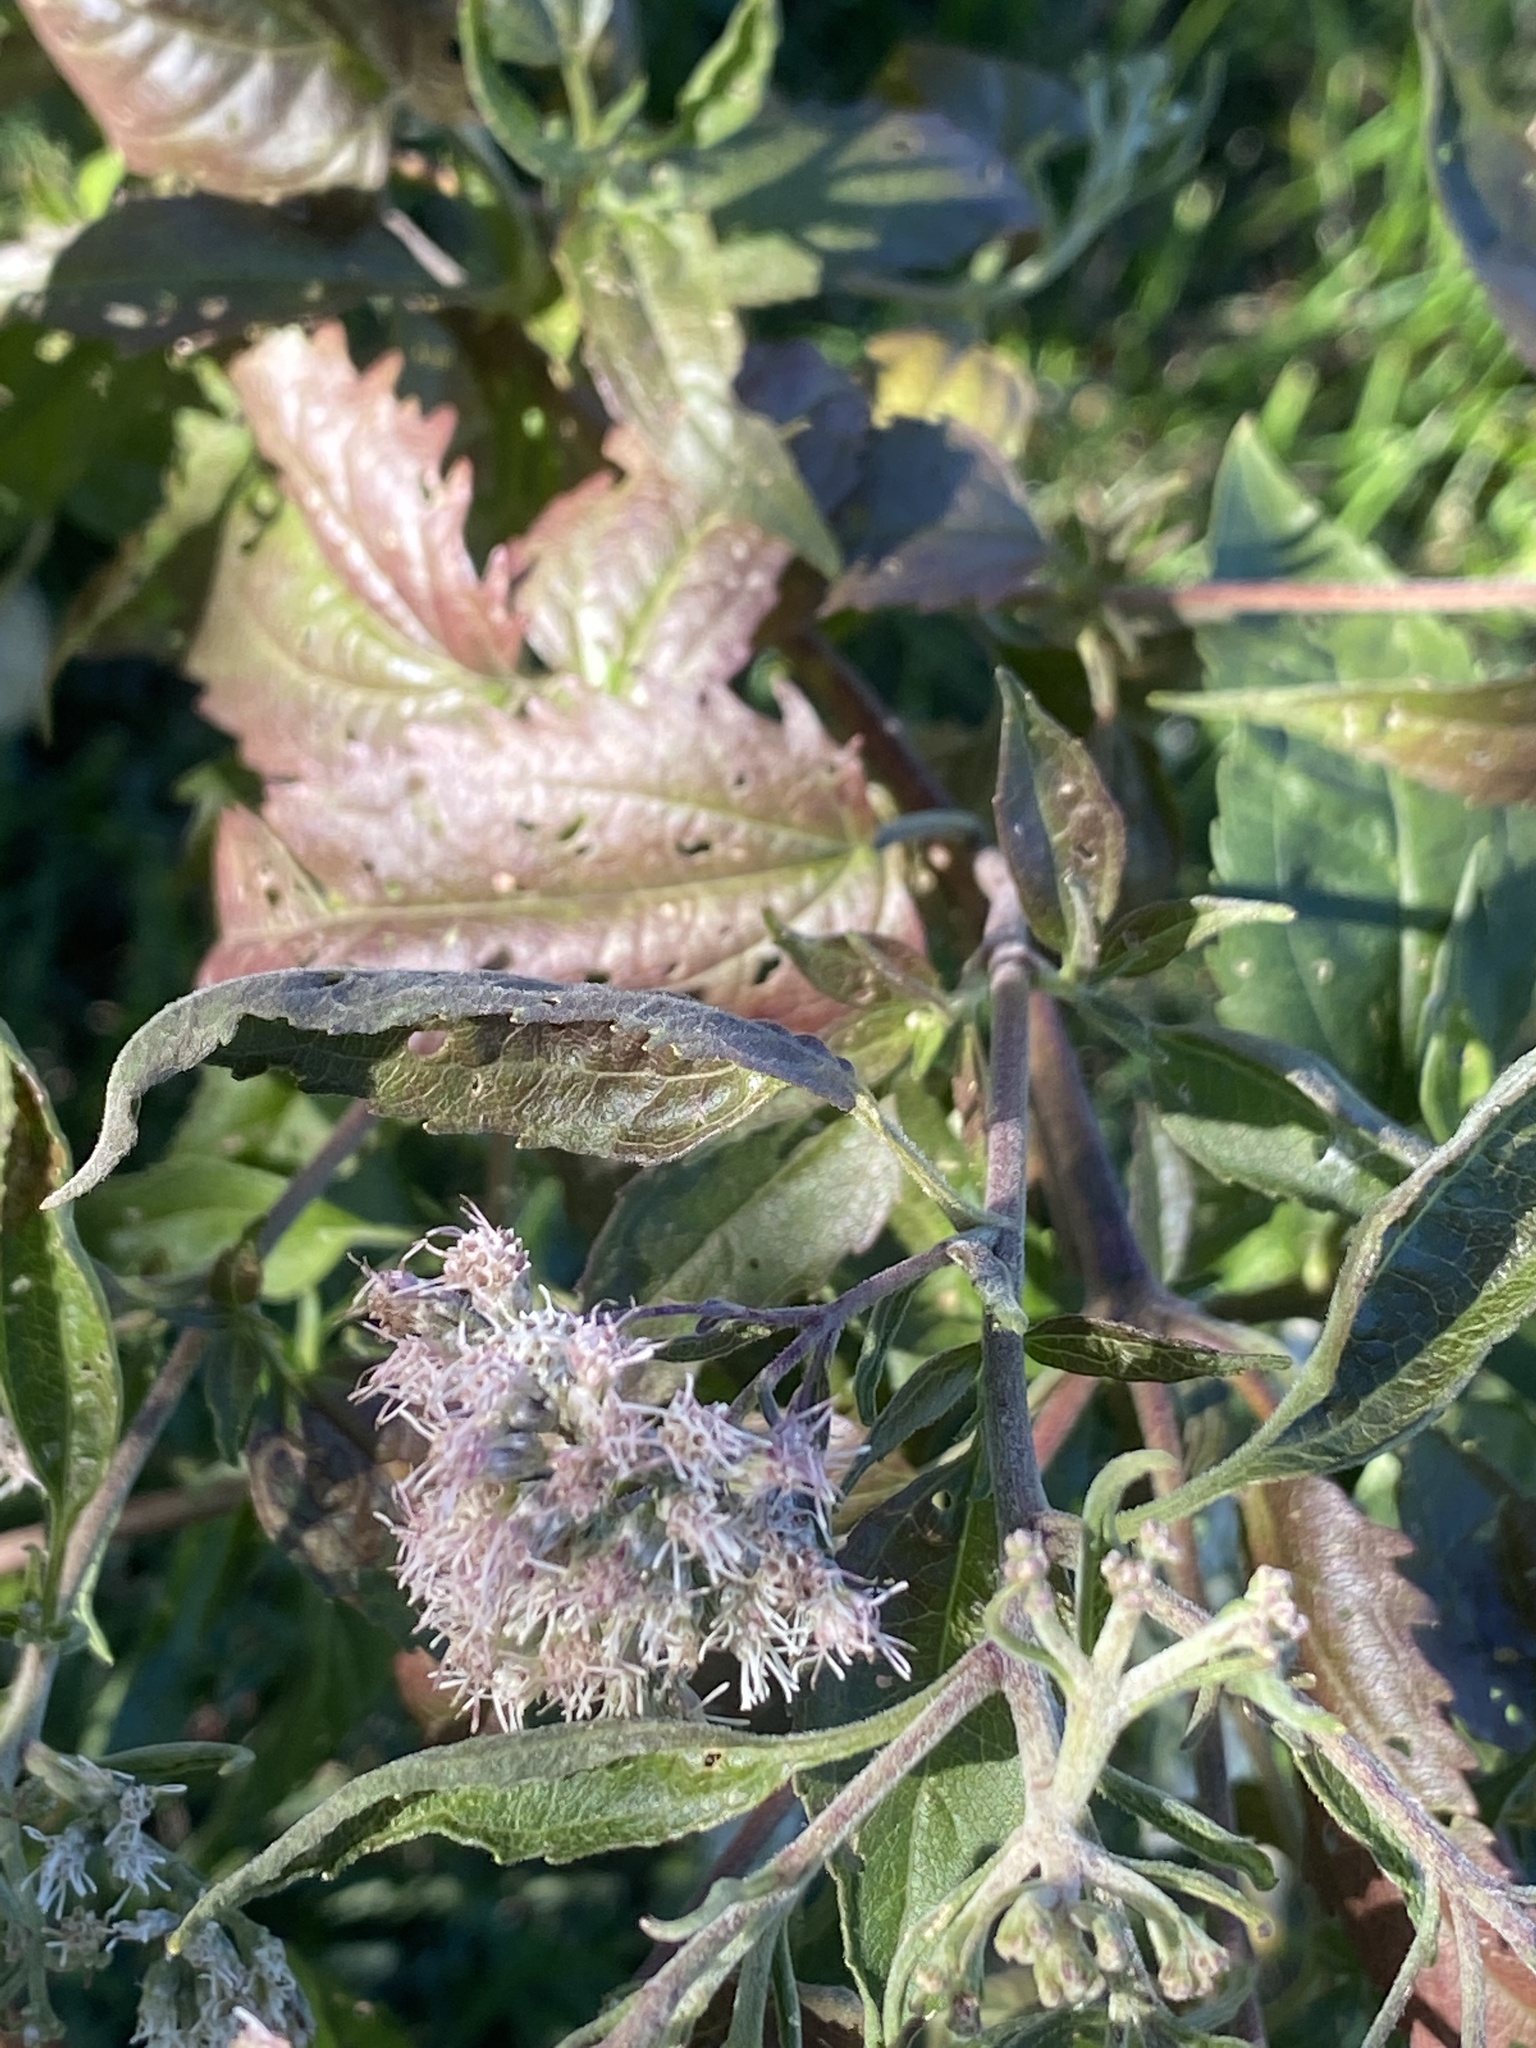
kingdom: Plantae
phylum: Tracheophyta
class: Magnoliopsida
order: Asterales
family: Asteraceae
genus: Eupatorium
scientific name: Eupatorium serotinum
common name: Late boneset
